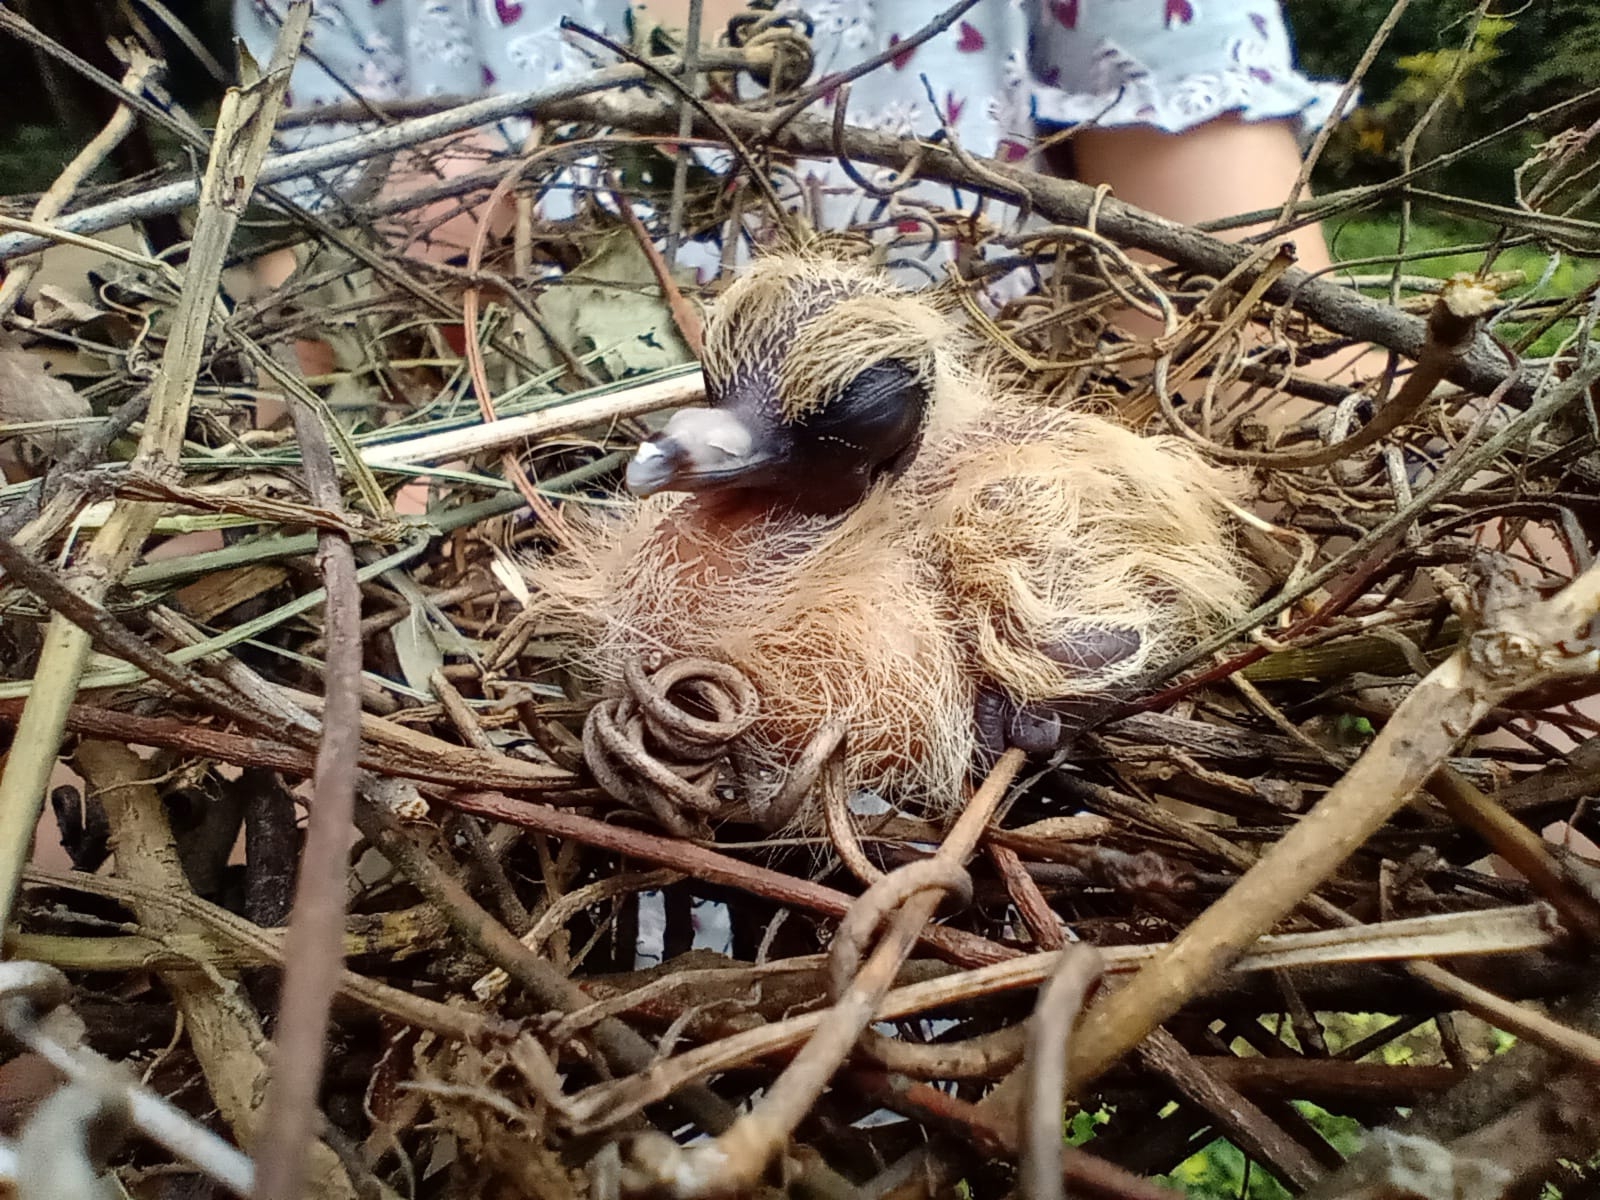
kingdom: Animalia
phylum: Chordata
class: Aves
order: Columbiformes
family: Columbidae
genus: Zenaida
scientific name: Zenaida auriculata
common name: Eared dove
